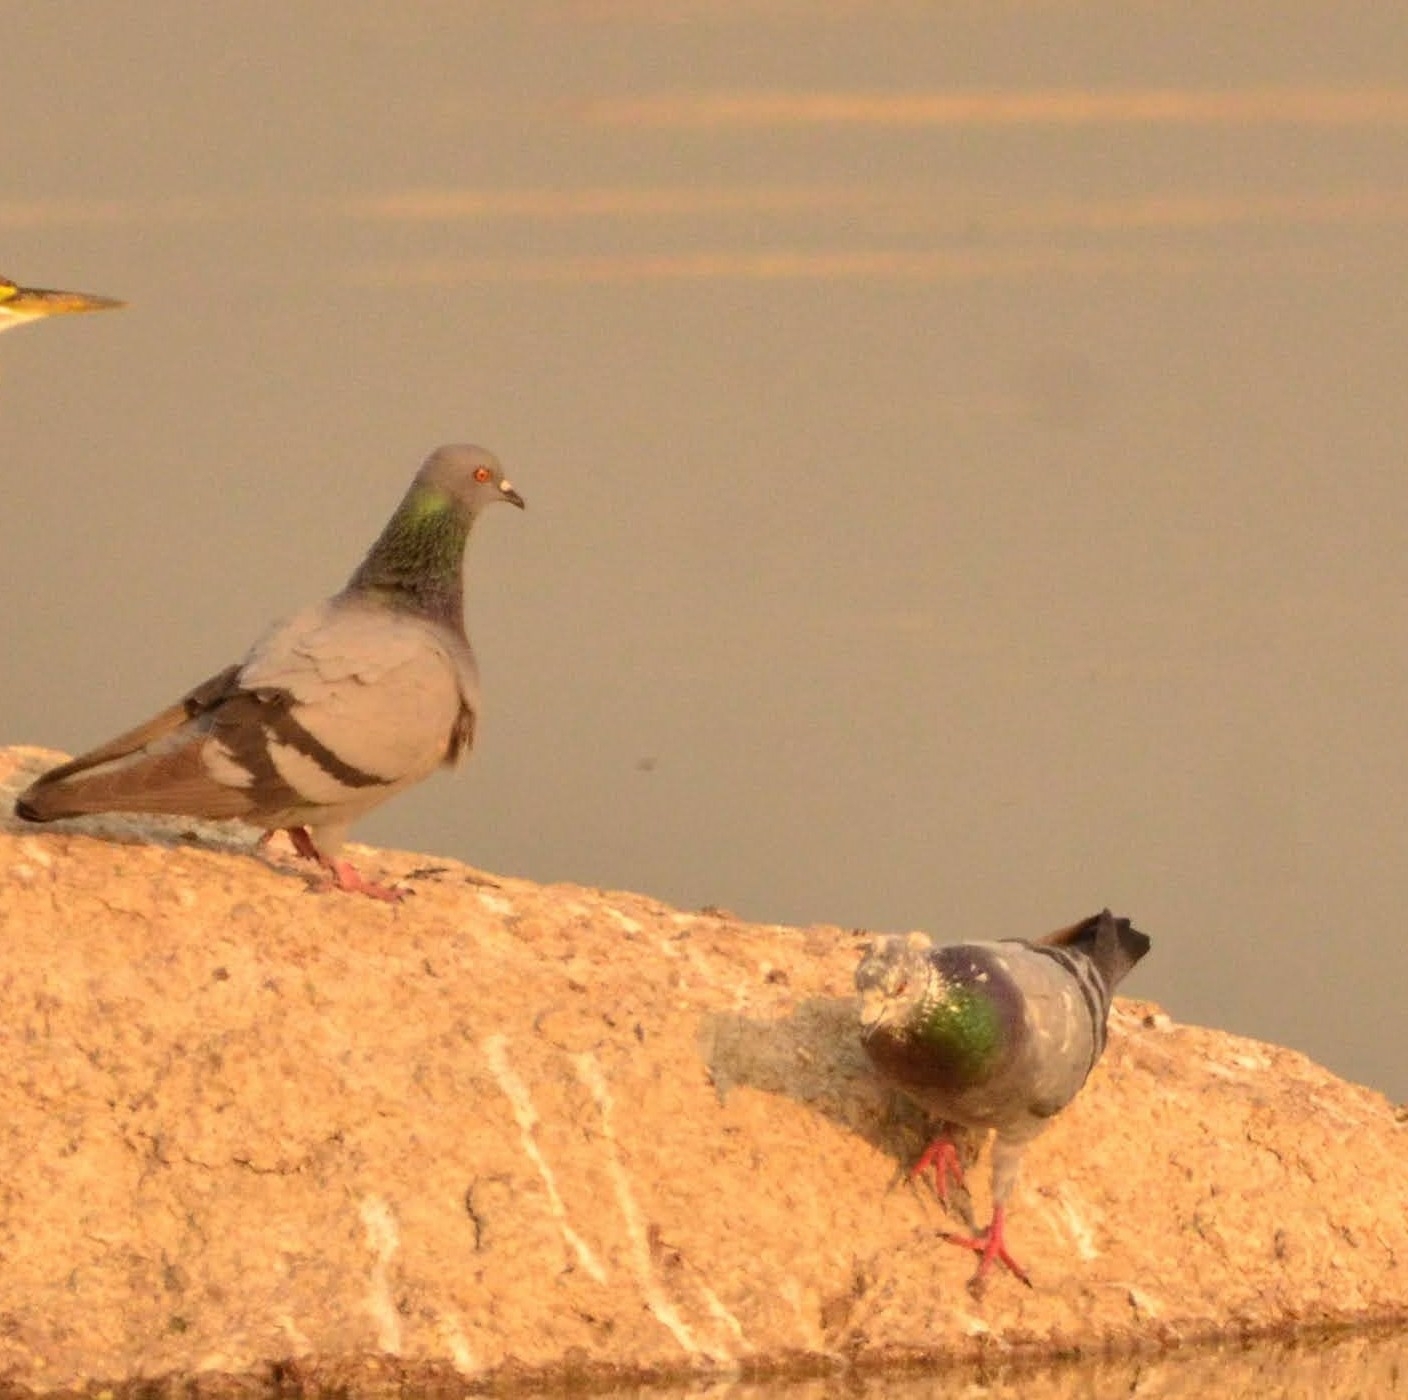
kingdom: Animalia
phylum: Chordata
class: Aves
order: Columbiformes
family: Columbidae
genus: Columba
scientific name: Columba livia
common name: Rock pigeon
